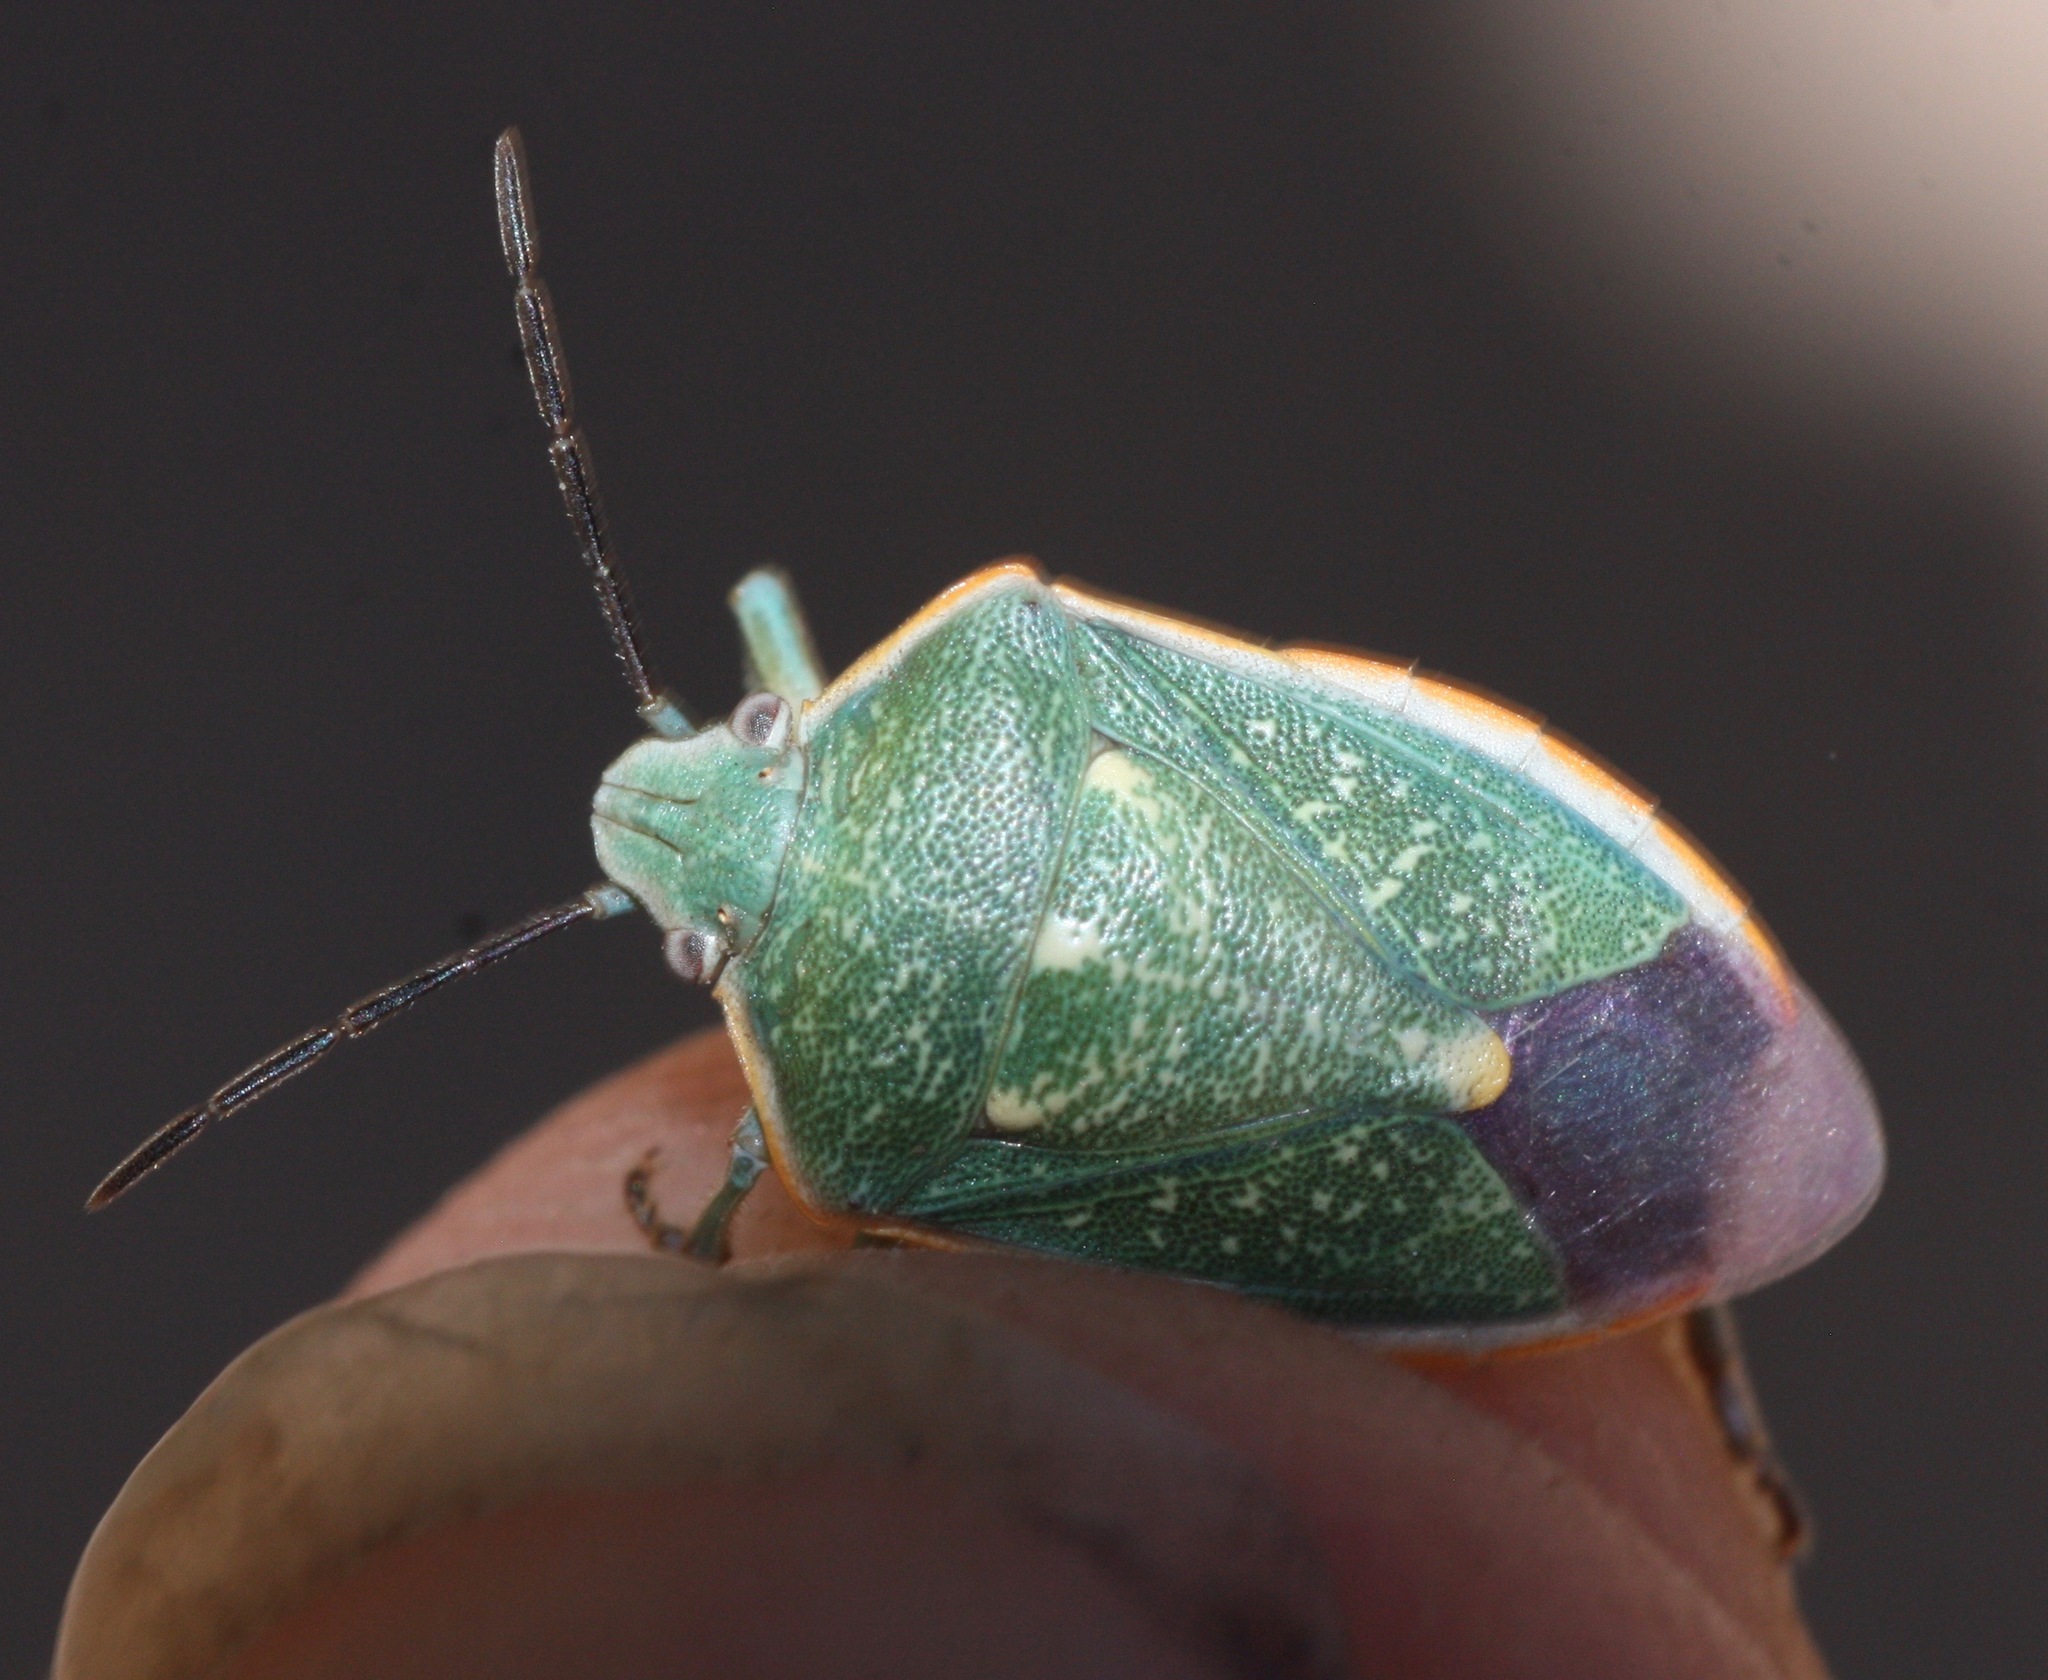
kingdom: Animalia
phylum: Arthropoda
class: Insecta
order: Hemiptera
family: Pentatomidae
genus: Chlorochroa
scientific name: Chlorochroa sayi
